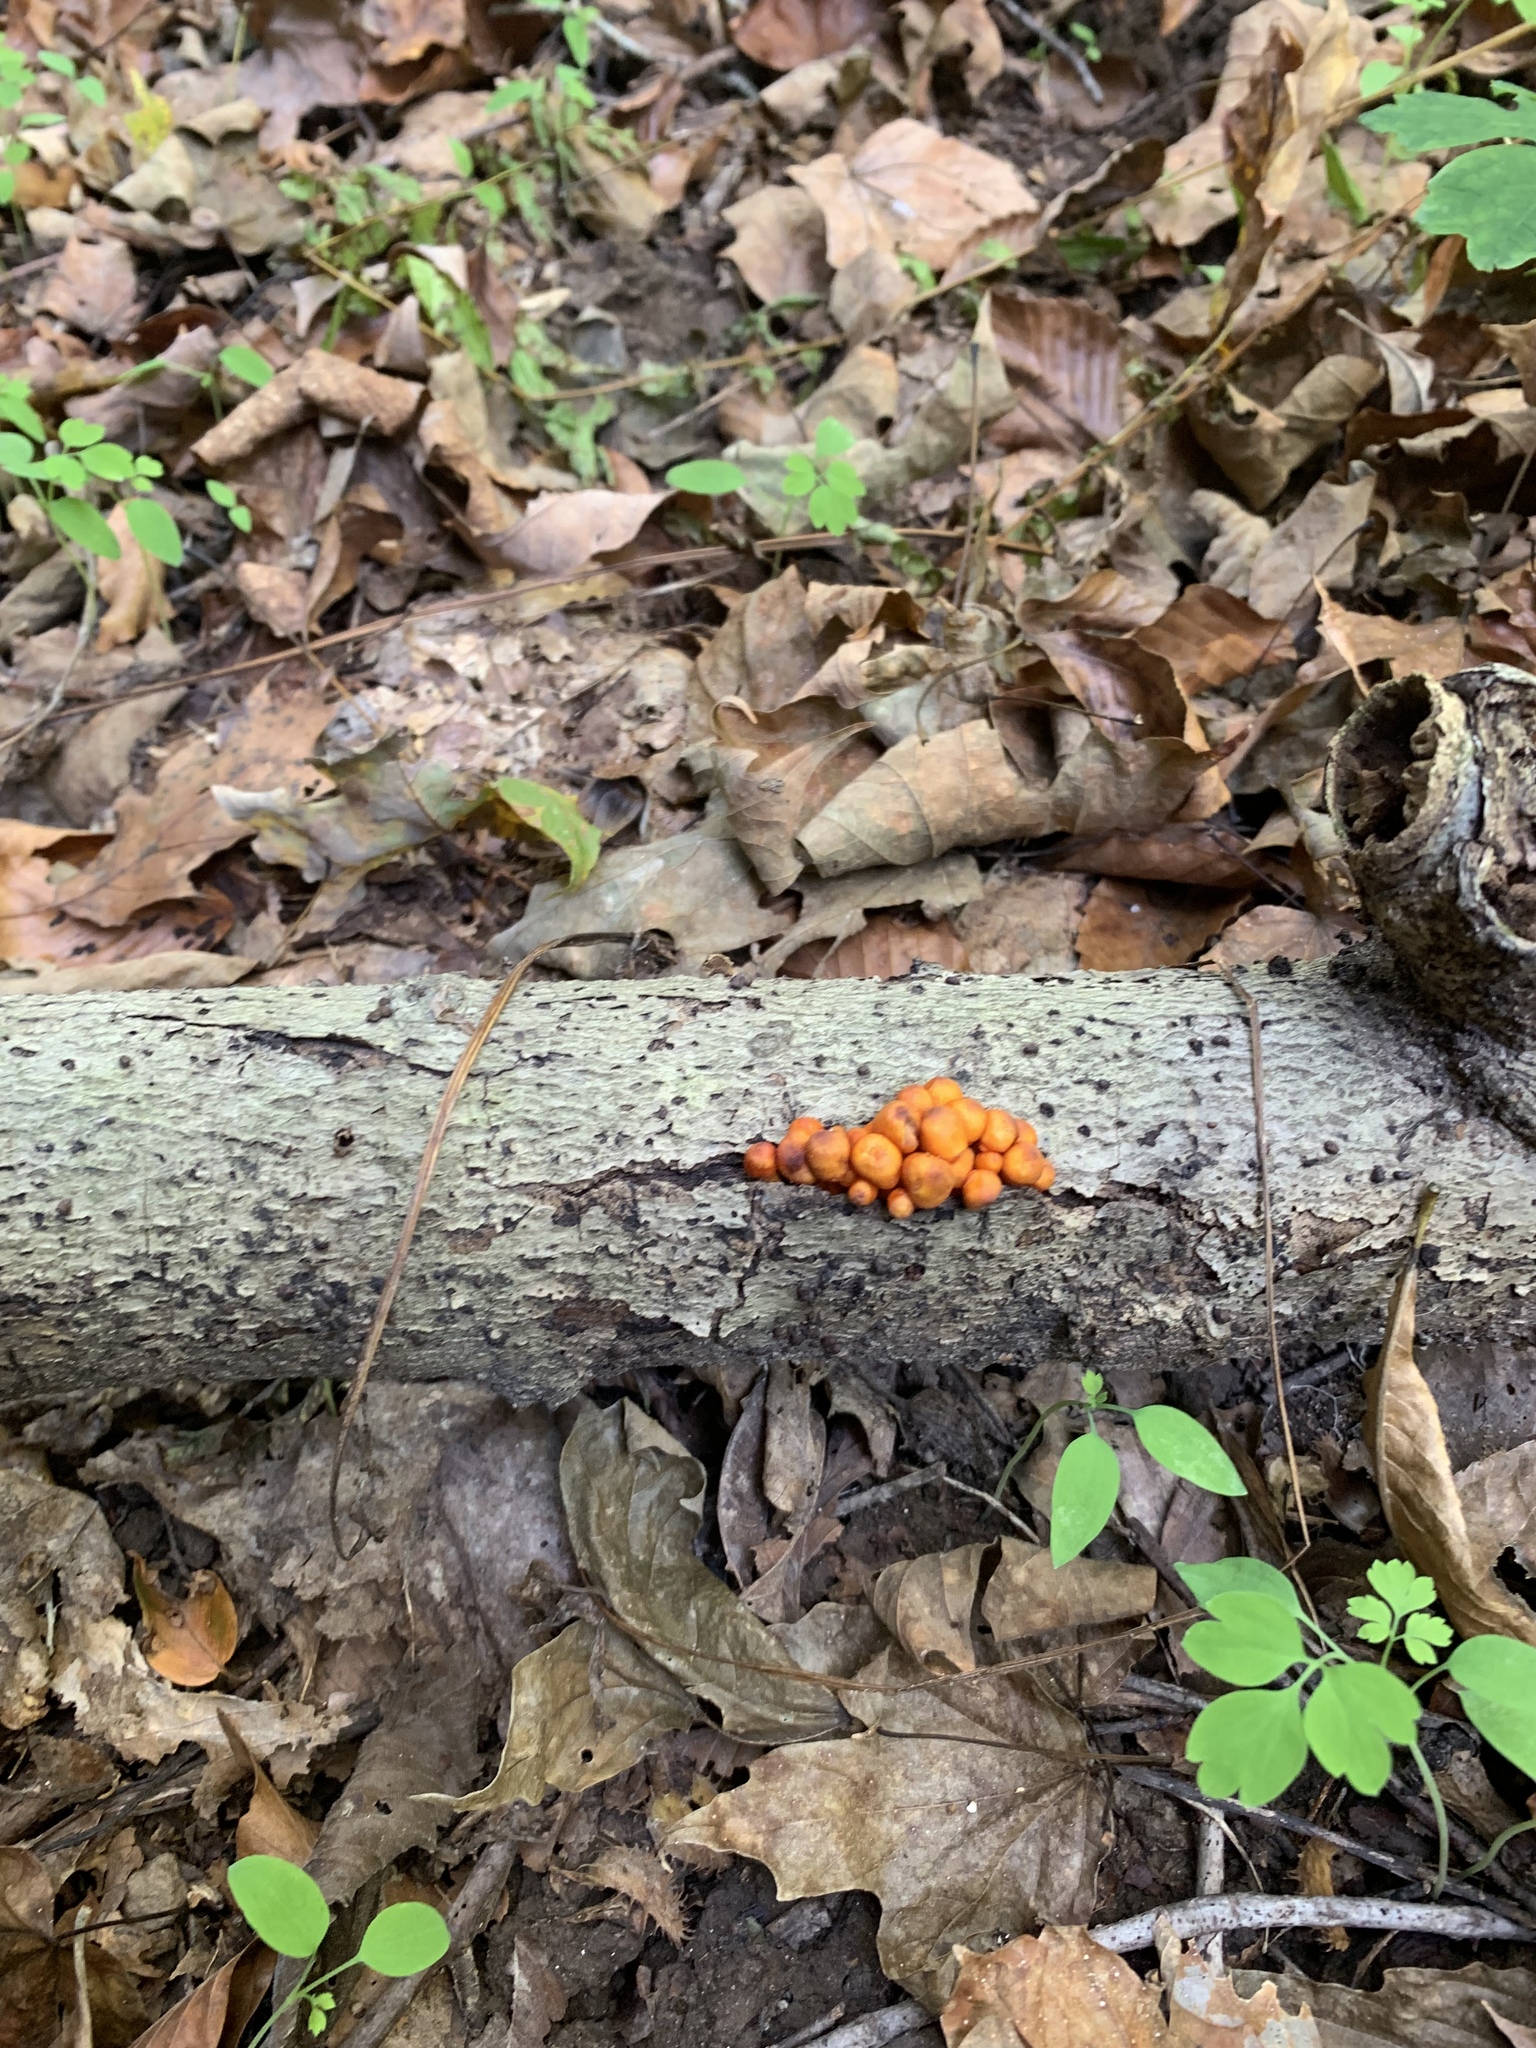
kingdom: Fungi
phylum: Basidiomycota
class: Agaricomycetes
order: Agaricales
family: Mycenaceae
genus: Mycena
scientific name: Mycena leaiana
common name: Orange mycena
